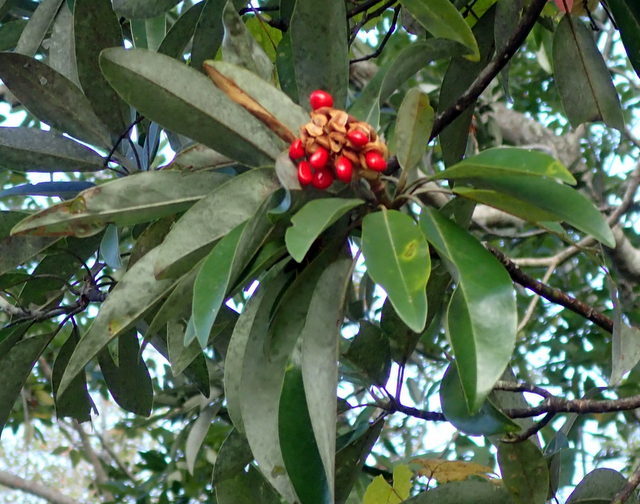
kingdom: Plantae
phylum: Tracheophyta
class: Magnoliopsida
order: Magnoliales
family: Magnoliaceae
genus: Magnolia
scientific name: Magnolia virginiana
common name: Swamp bay
